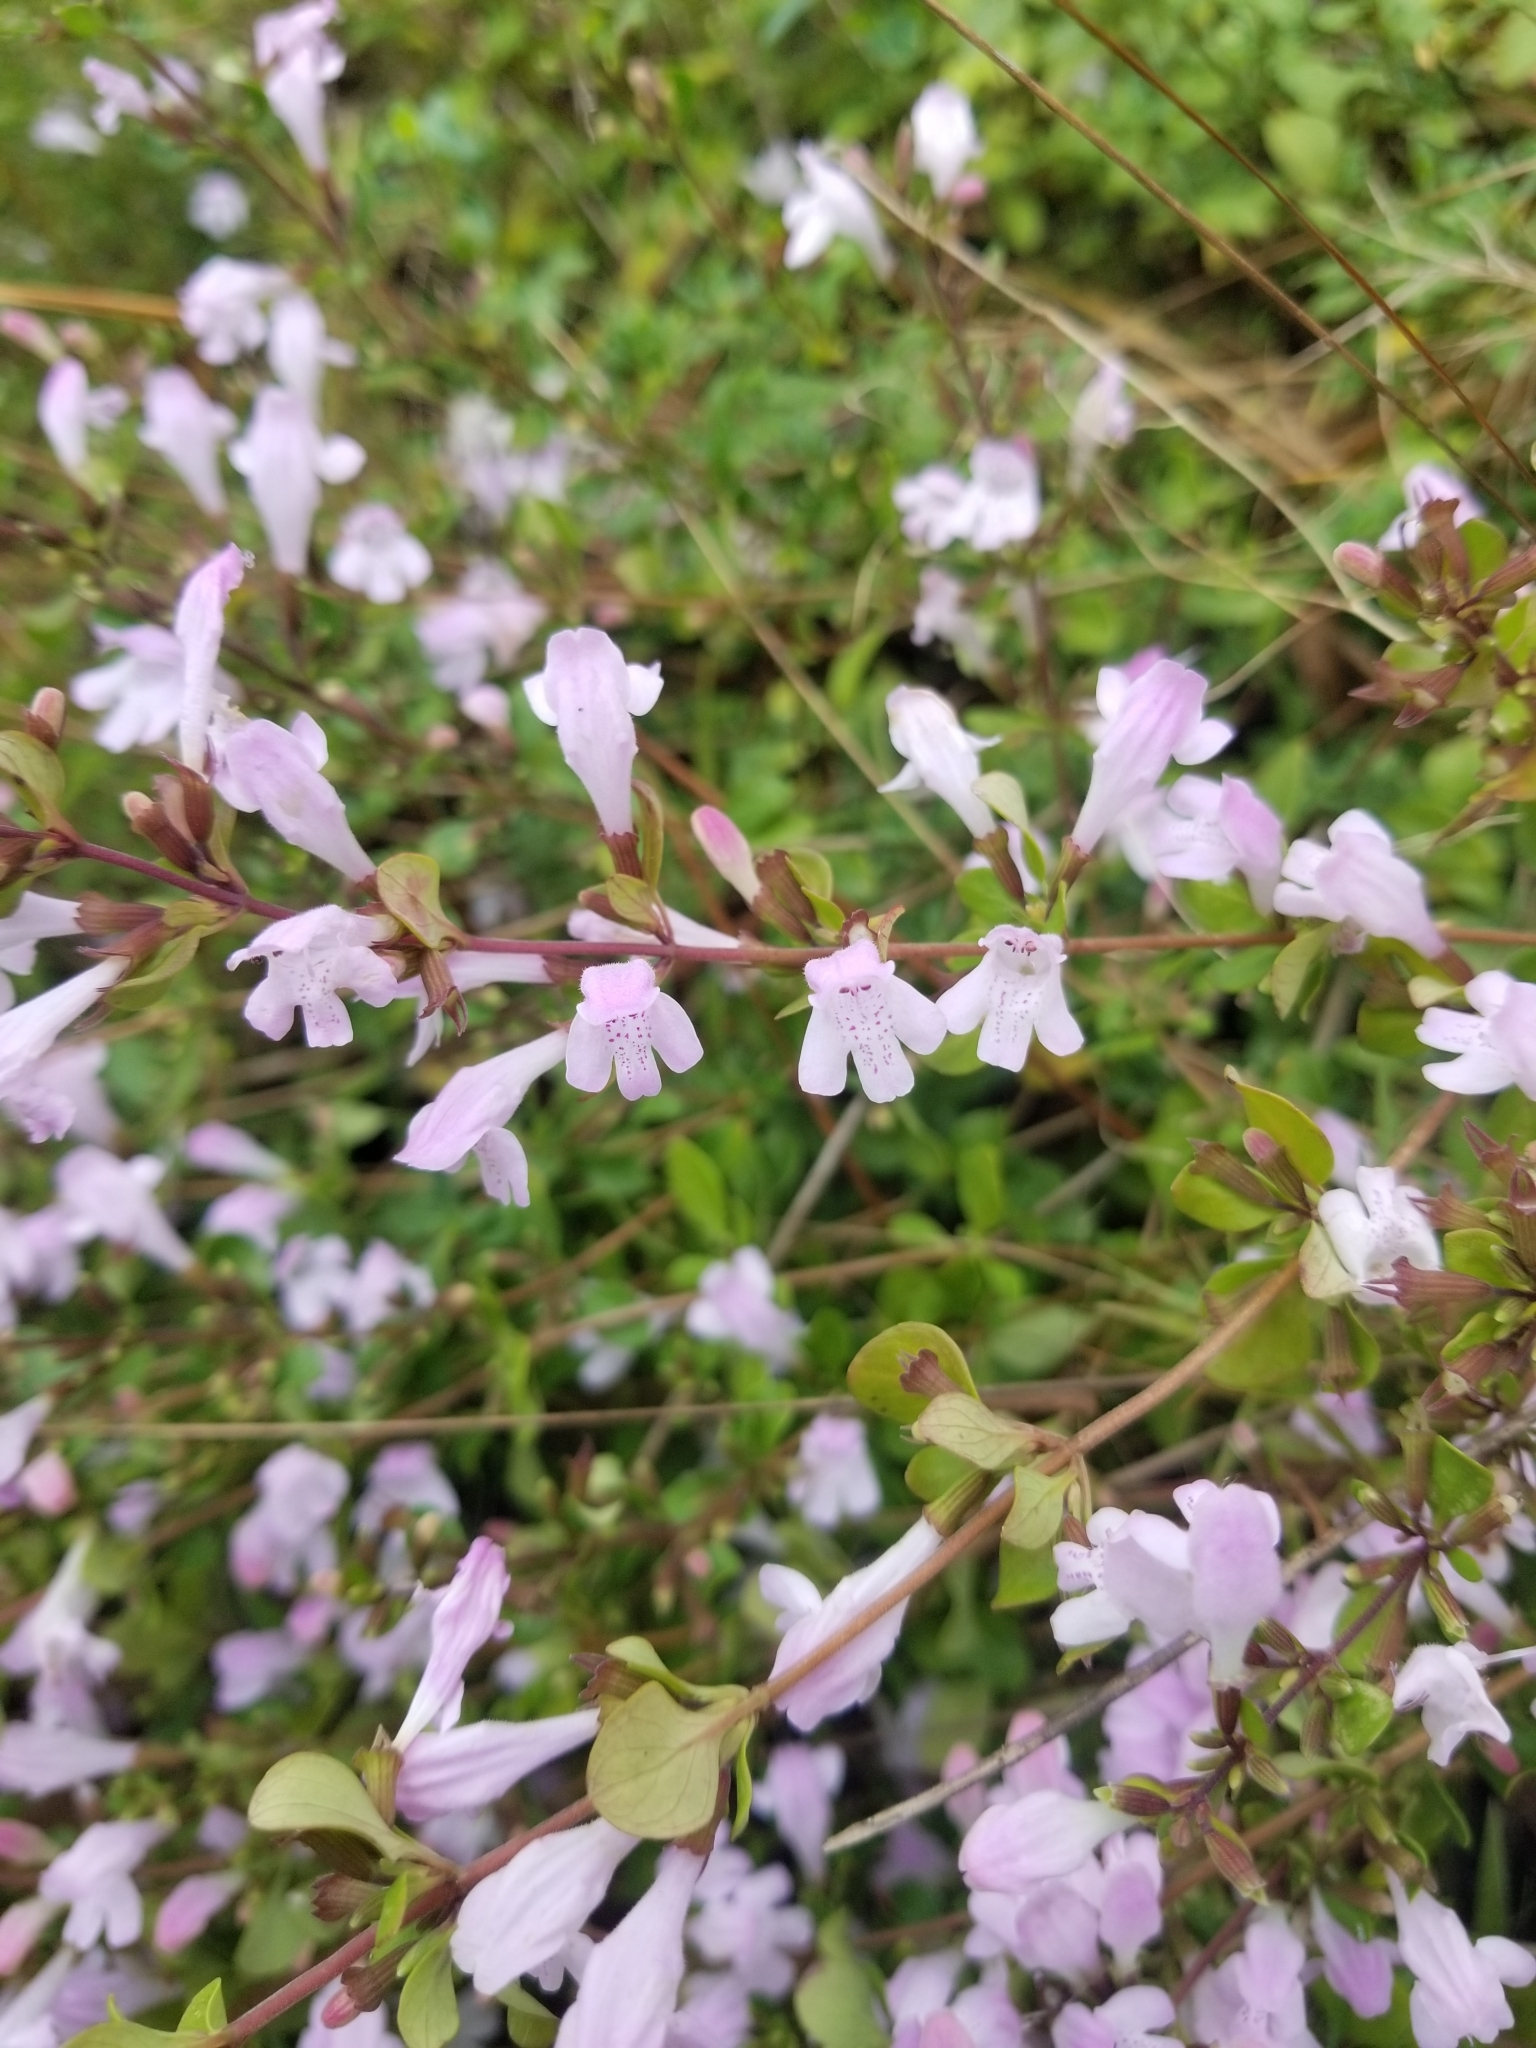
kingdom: Plantae
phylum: Tracheophyta
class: Magnoliopsida
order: Lamiales
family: Lamiaceae
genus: Clinopodium
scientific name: Clinopodium carolinianum
